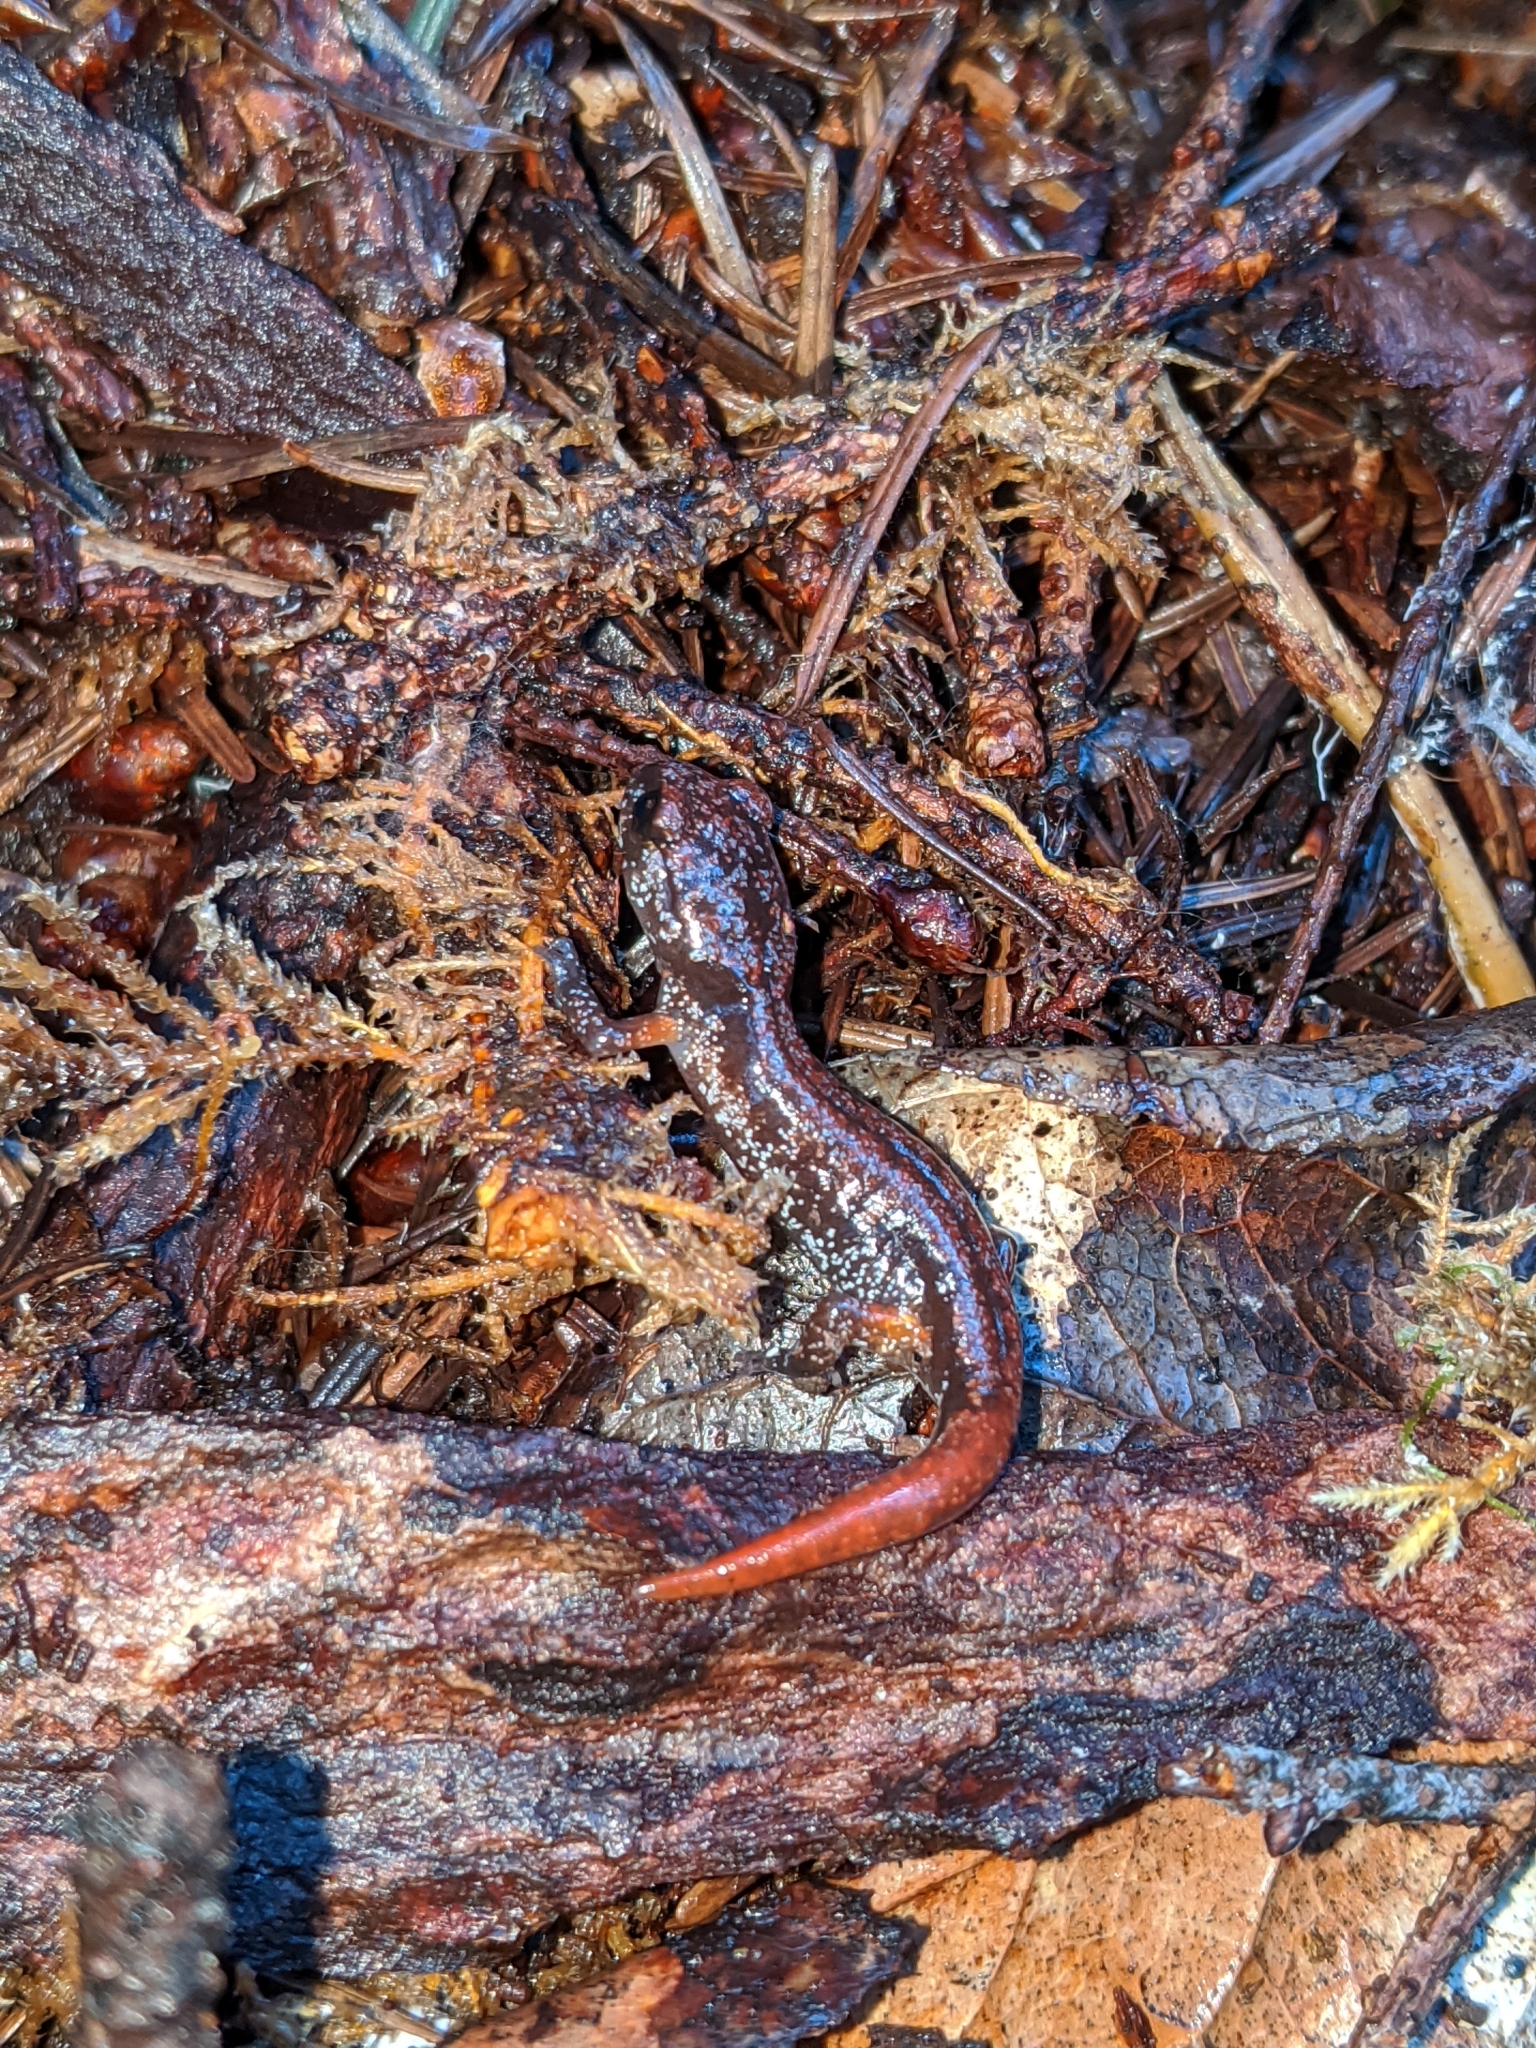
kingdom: Animalia
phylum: Chordata
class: Amphibia
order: Caudata
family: Plethodontidae
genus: Ensatina
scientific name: Ensatina eschscholtzii
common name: Ensatina
